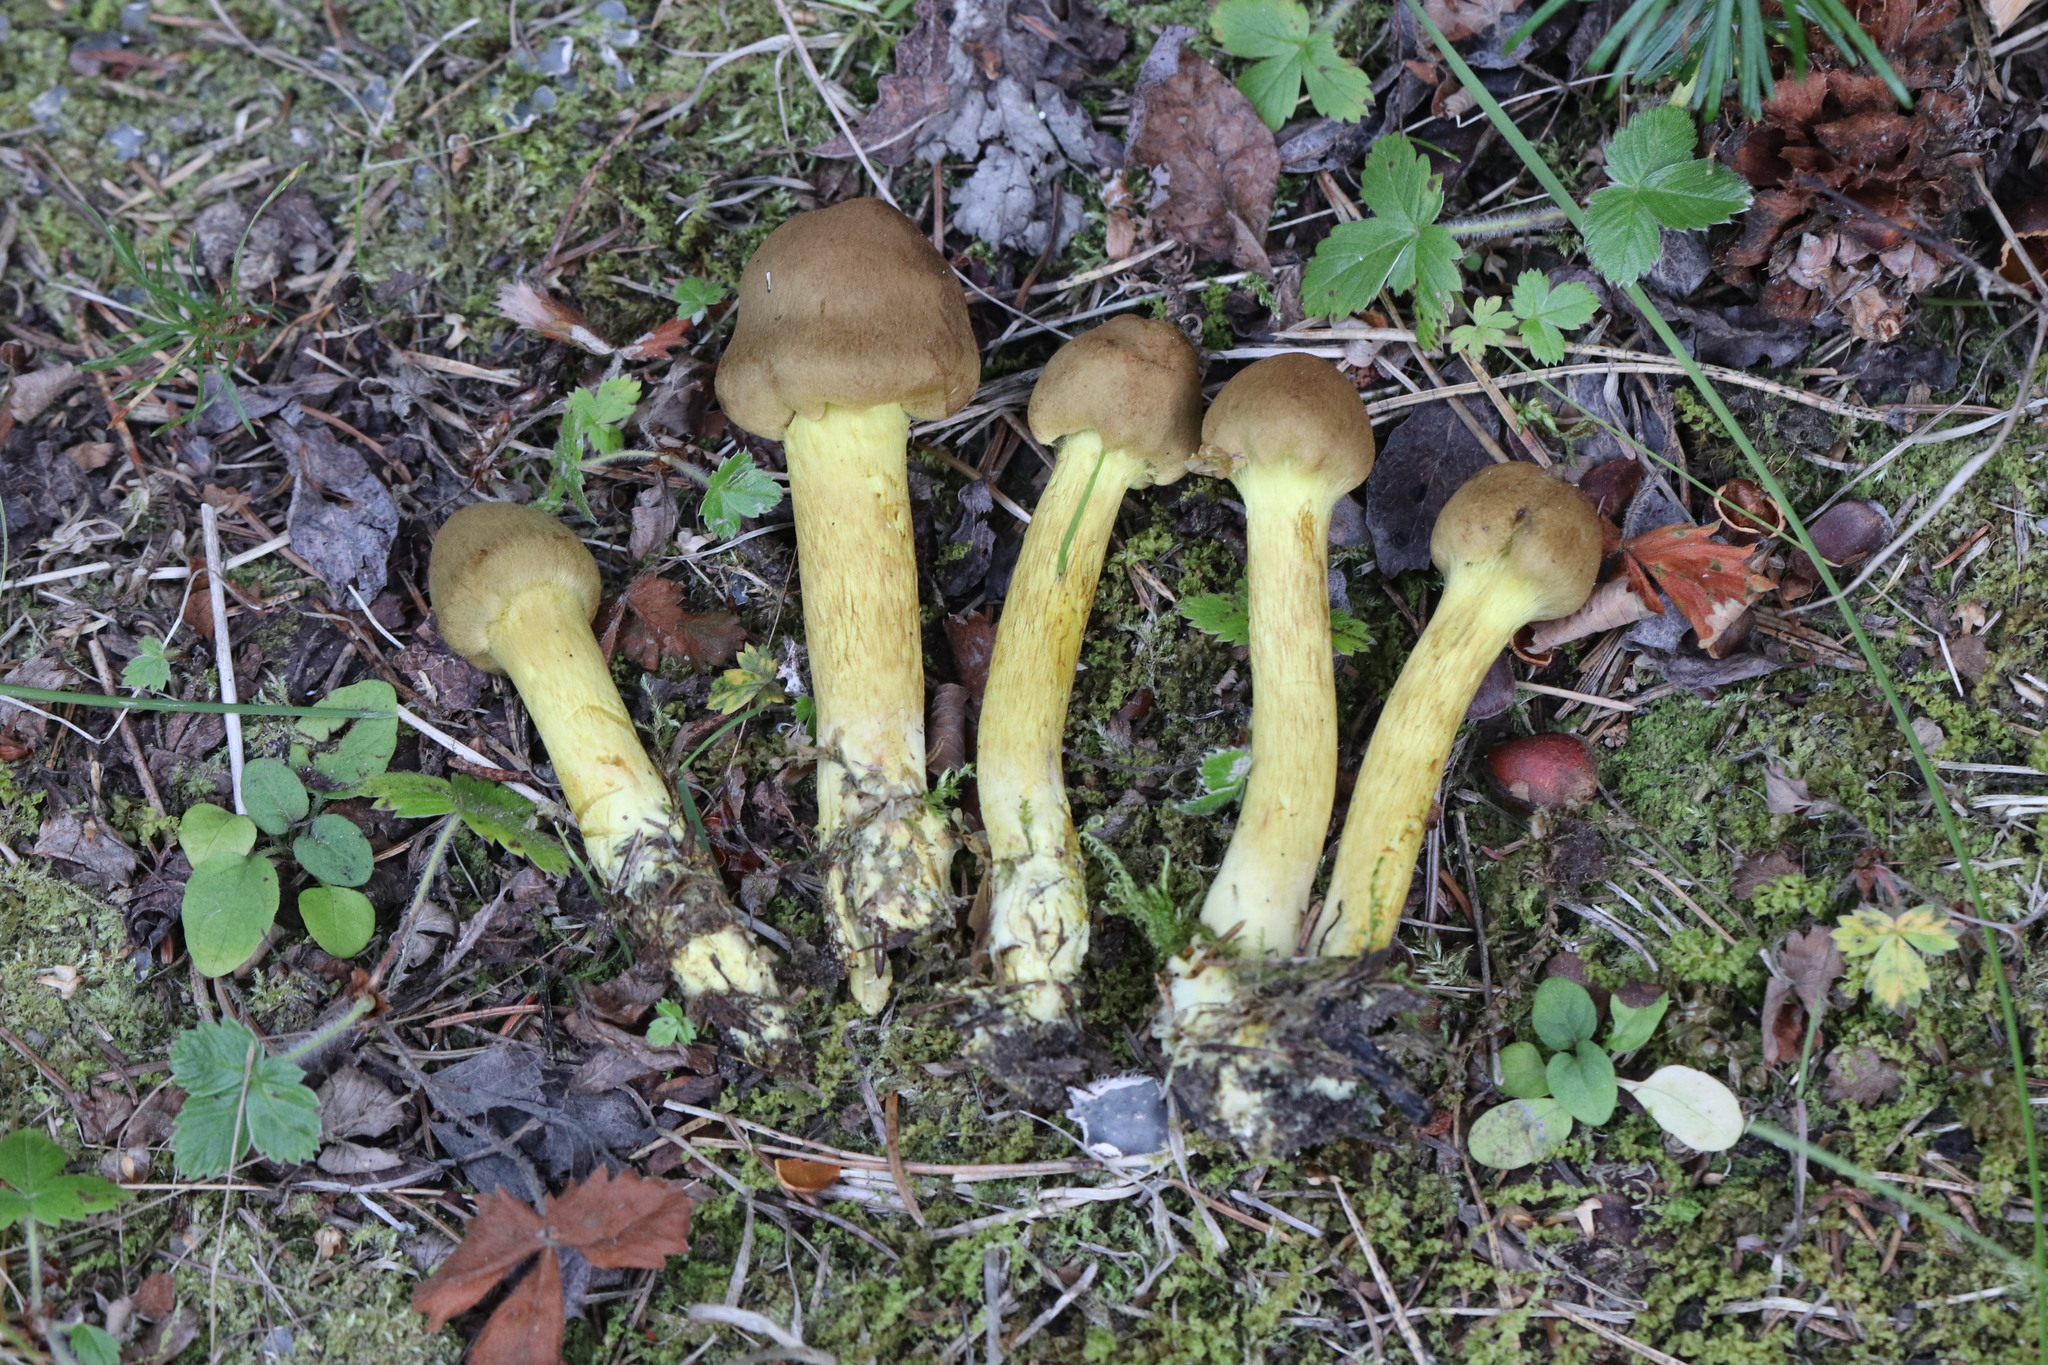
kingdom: Fungi
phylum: Basidiomycota
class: Agaricomycetes
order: Agaricales
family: Cortinariaceae
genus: Cortinarius
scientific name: Cortinarius croceus
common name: Saffron webcap
